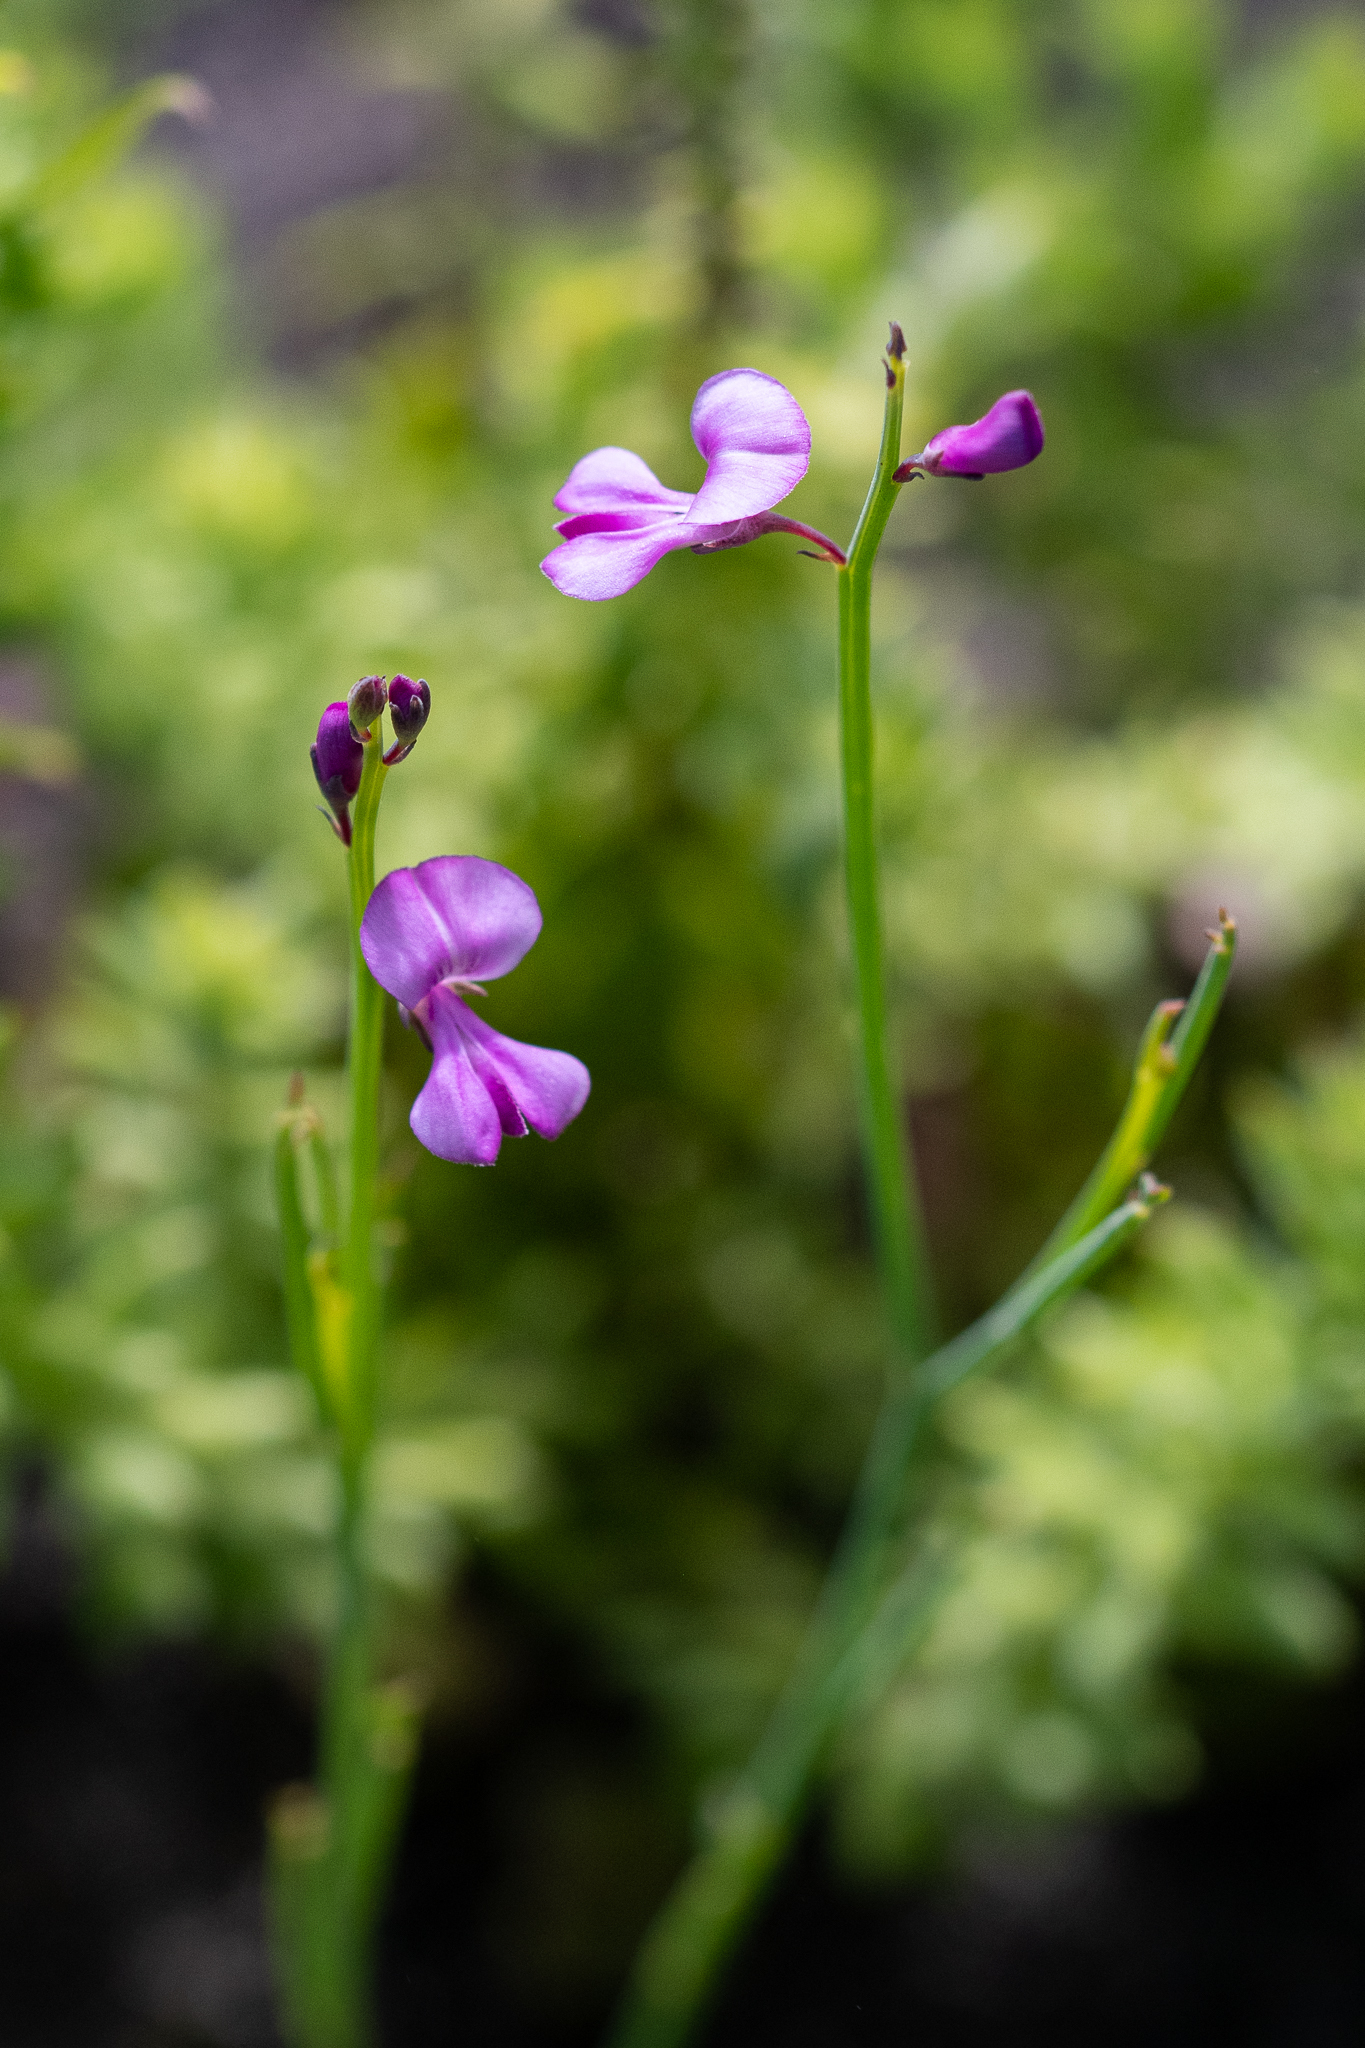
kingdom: Plantae
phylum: Tracheophyta
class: Magnoliopsida
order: Fabales
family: Fabaceae
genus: Indigofera
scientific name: Indigofera ionii
